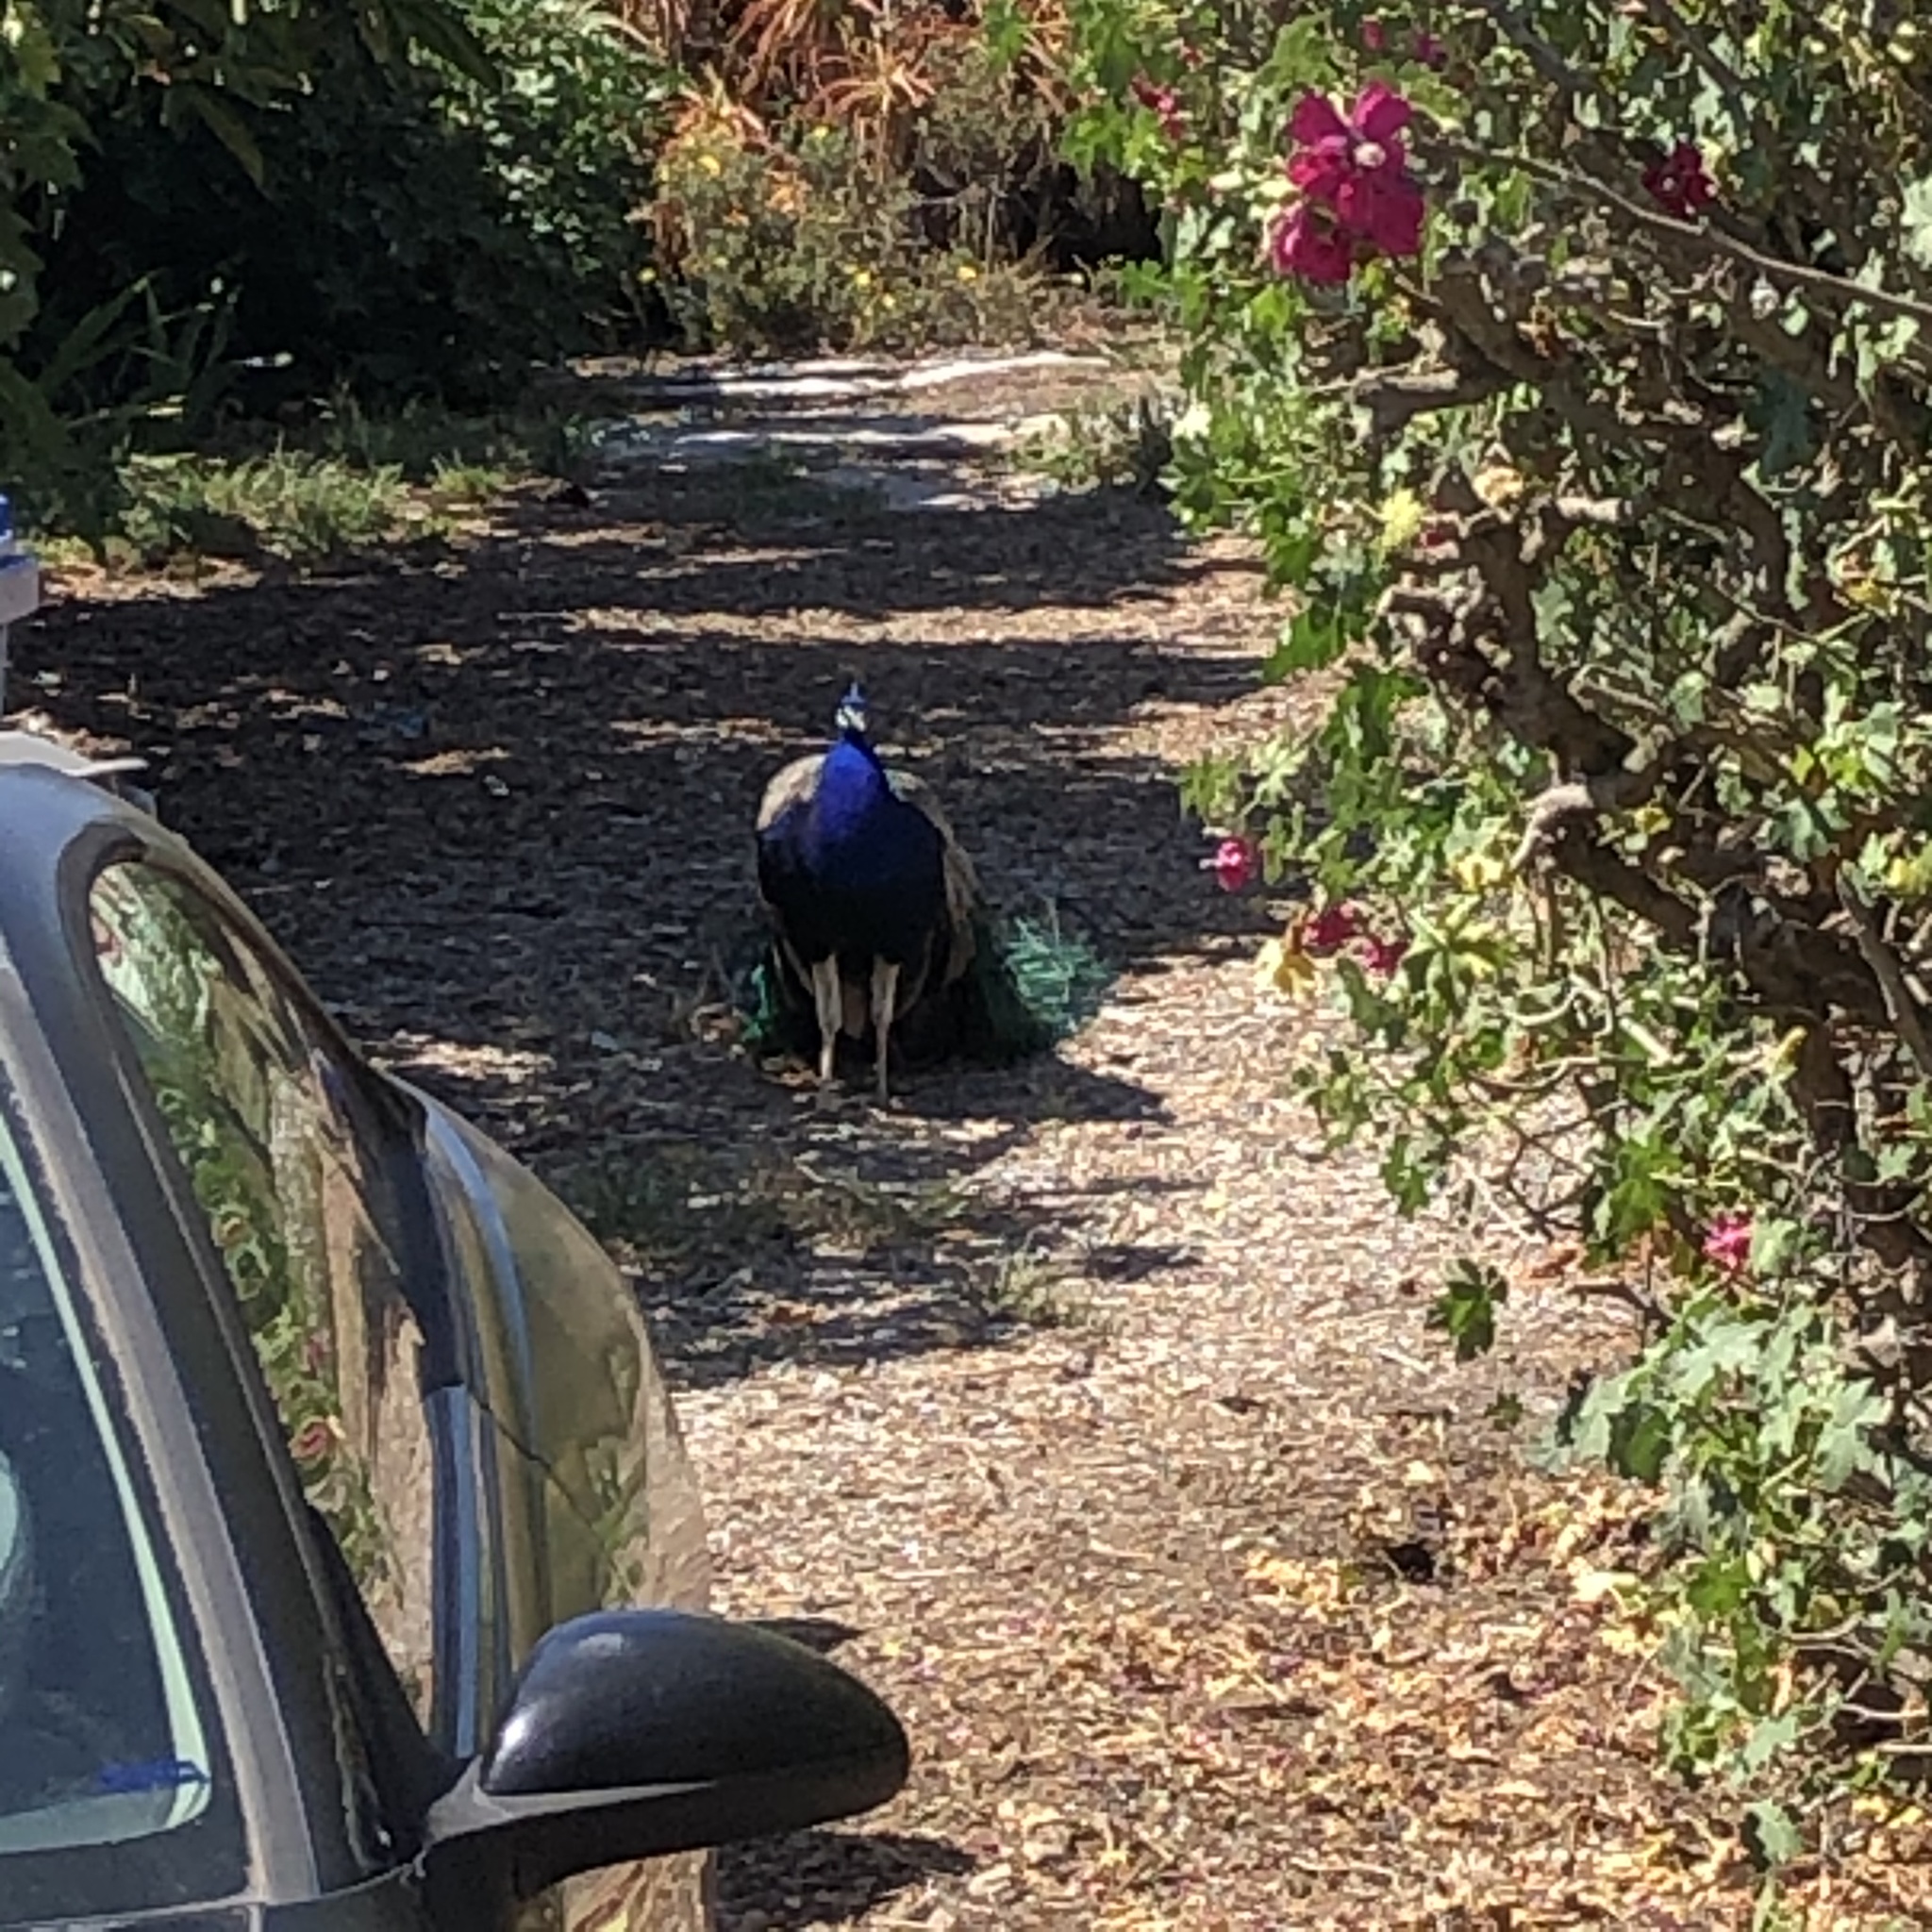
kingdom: Animalia
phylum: Chordata
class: Aves
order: Galliformes
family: Phasianidae
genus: Pavo
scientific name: Pavo cristatus
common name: Indian peafowl
